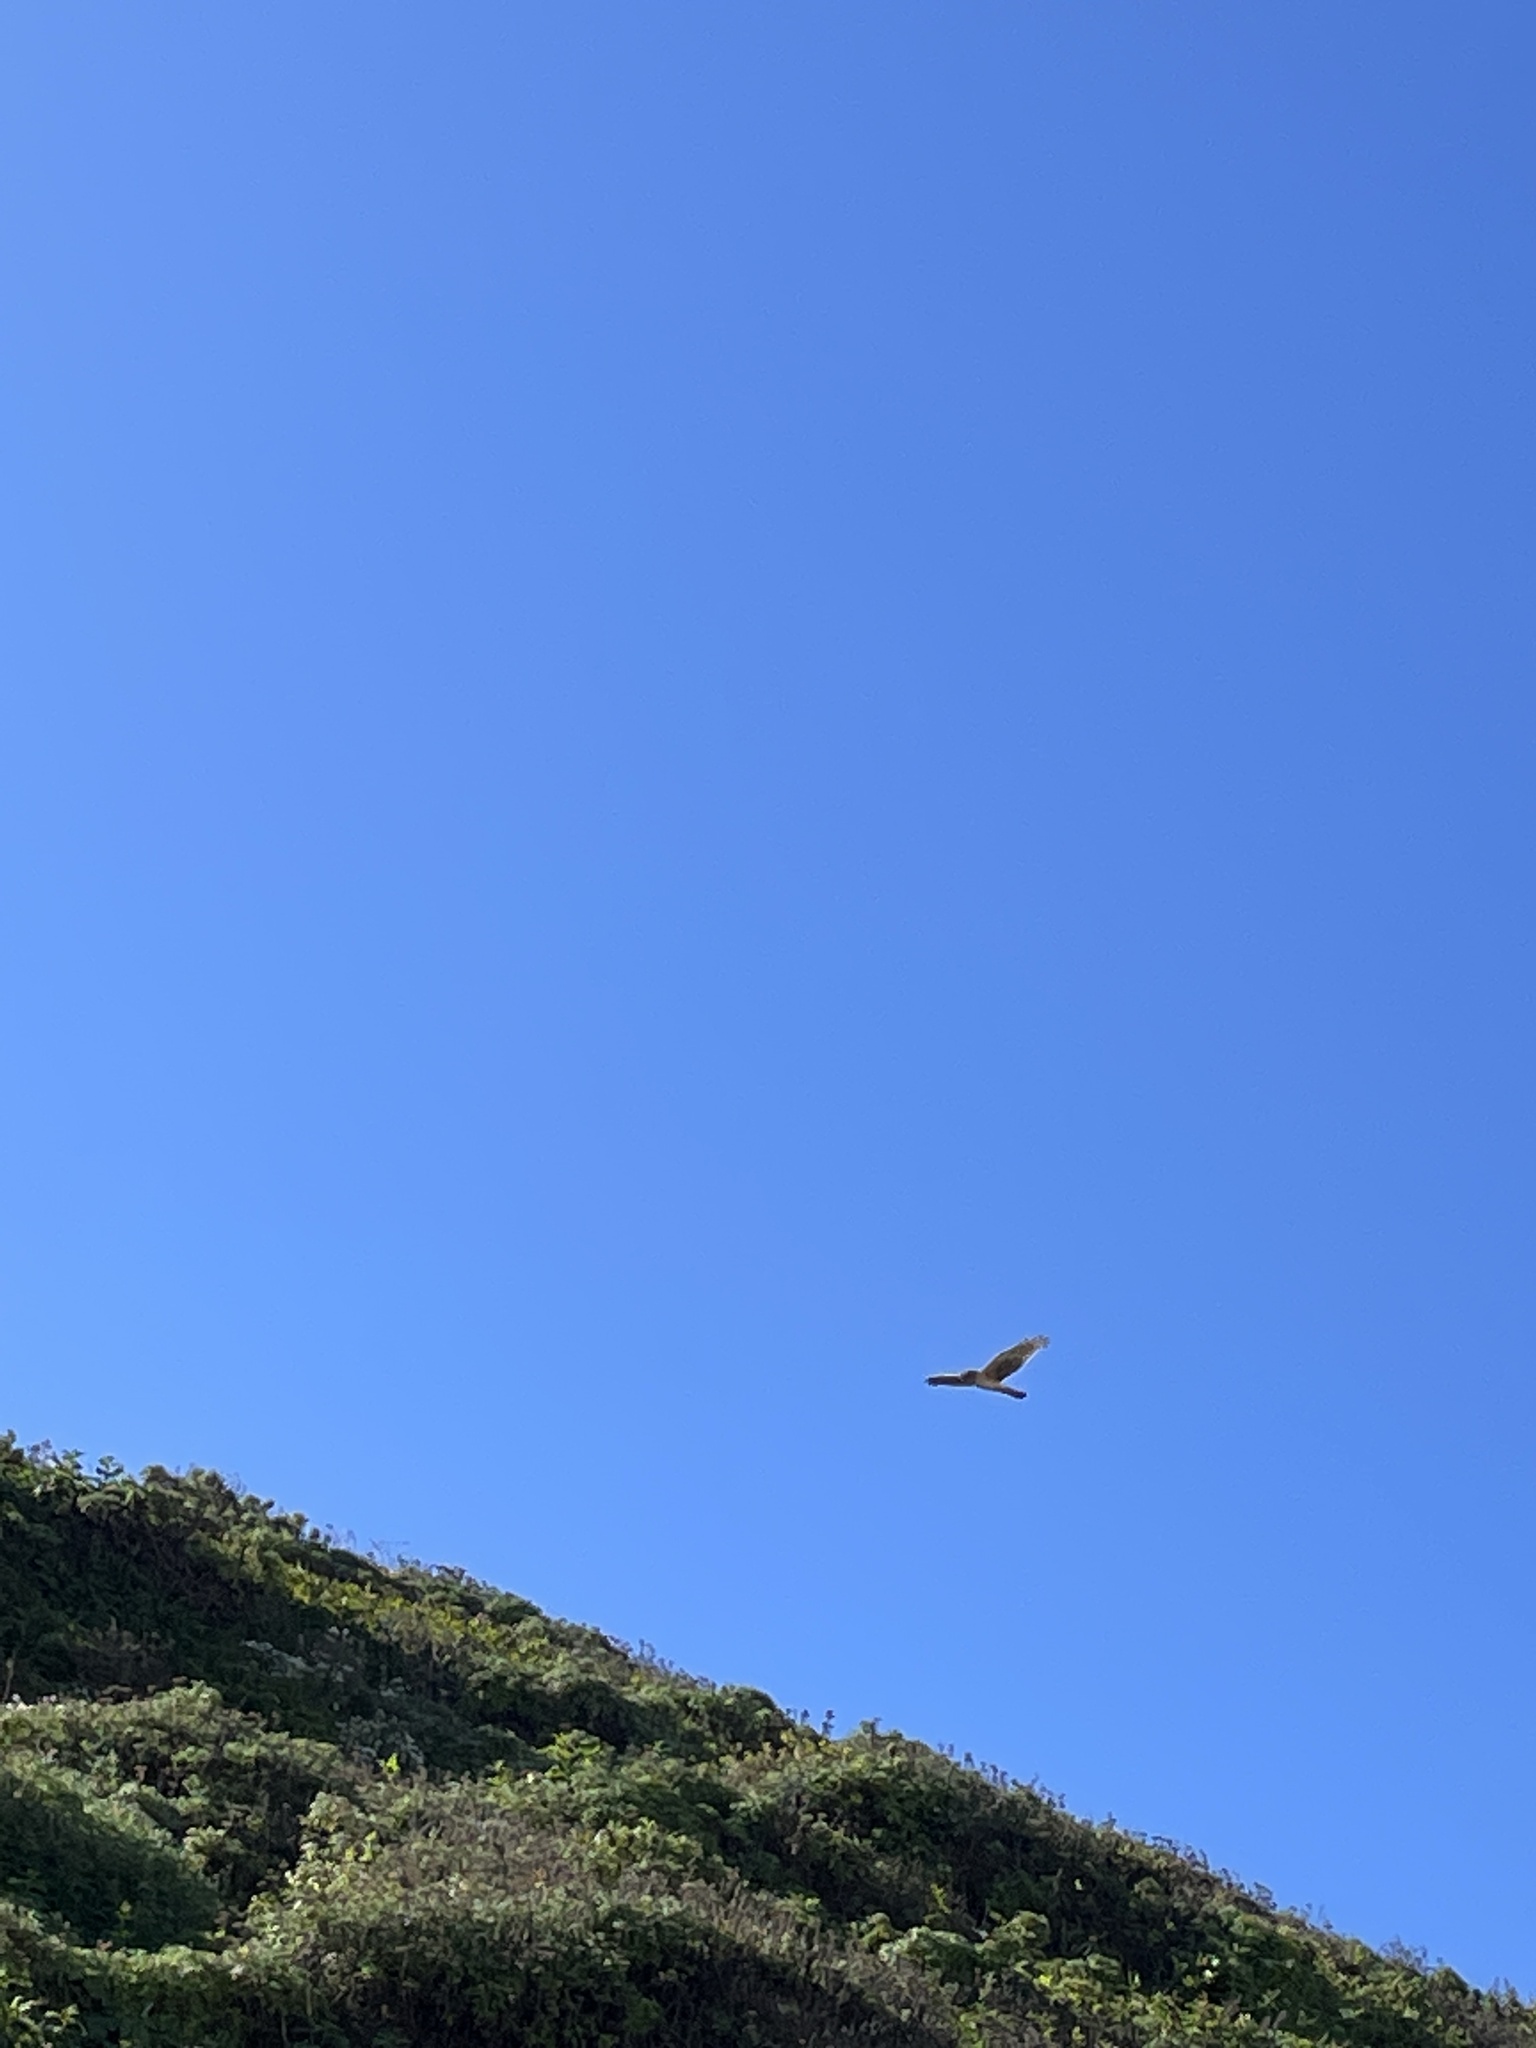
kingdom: Animalia
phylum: Chordata
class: Aves
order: Accipitriformes
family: Accipitridae
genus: Circus
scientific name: Circus cyaneus
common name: Hen harrier
